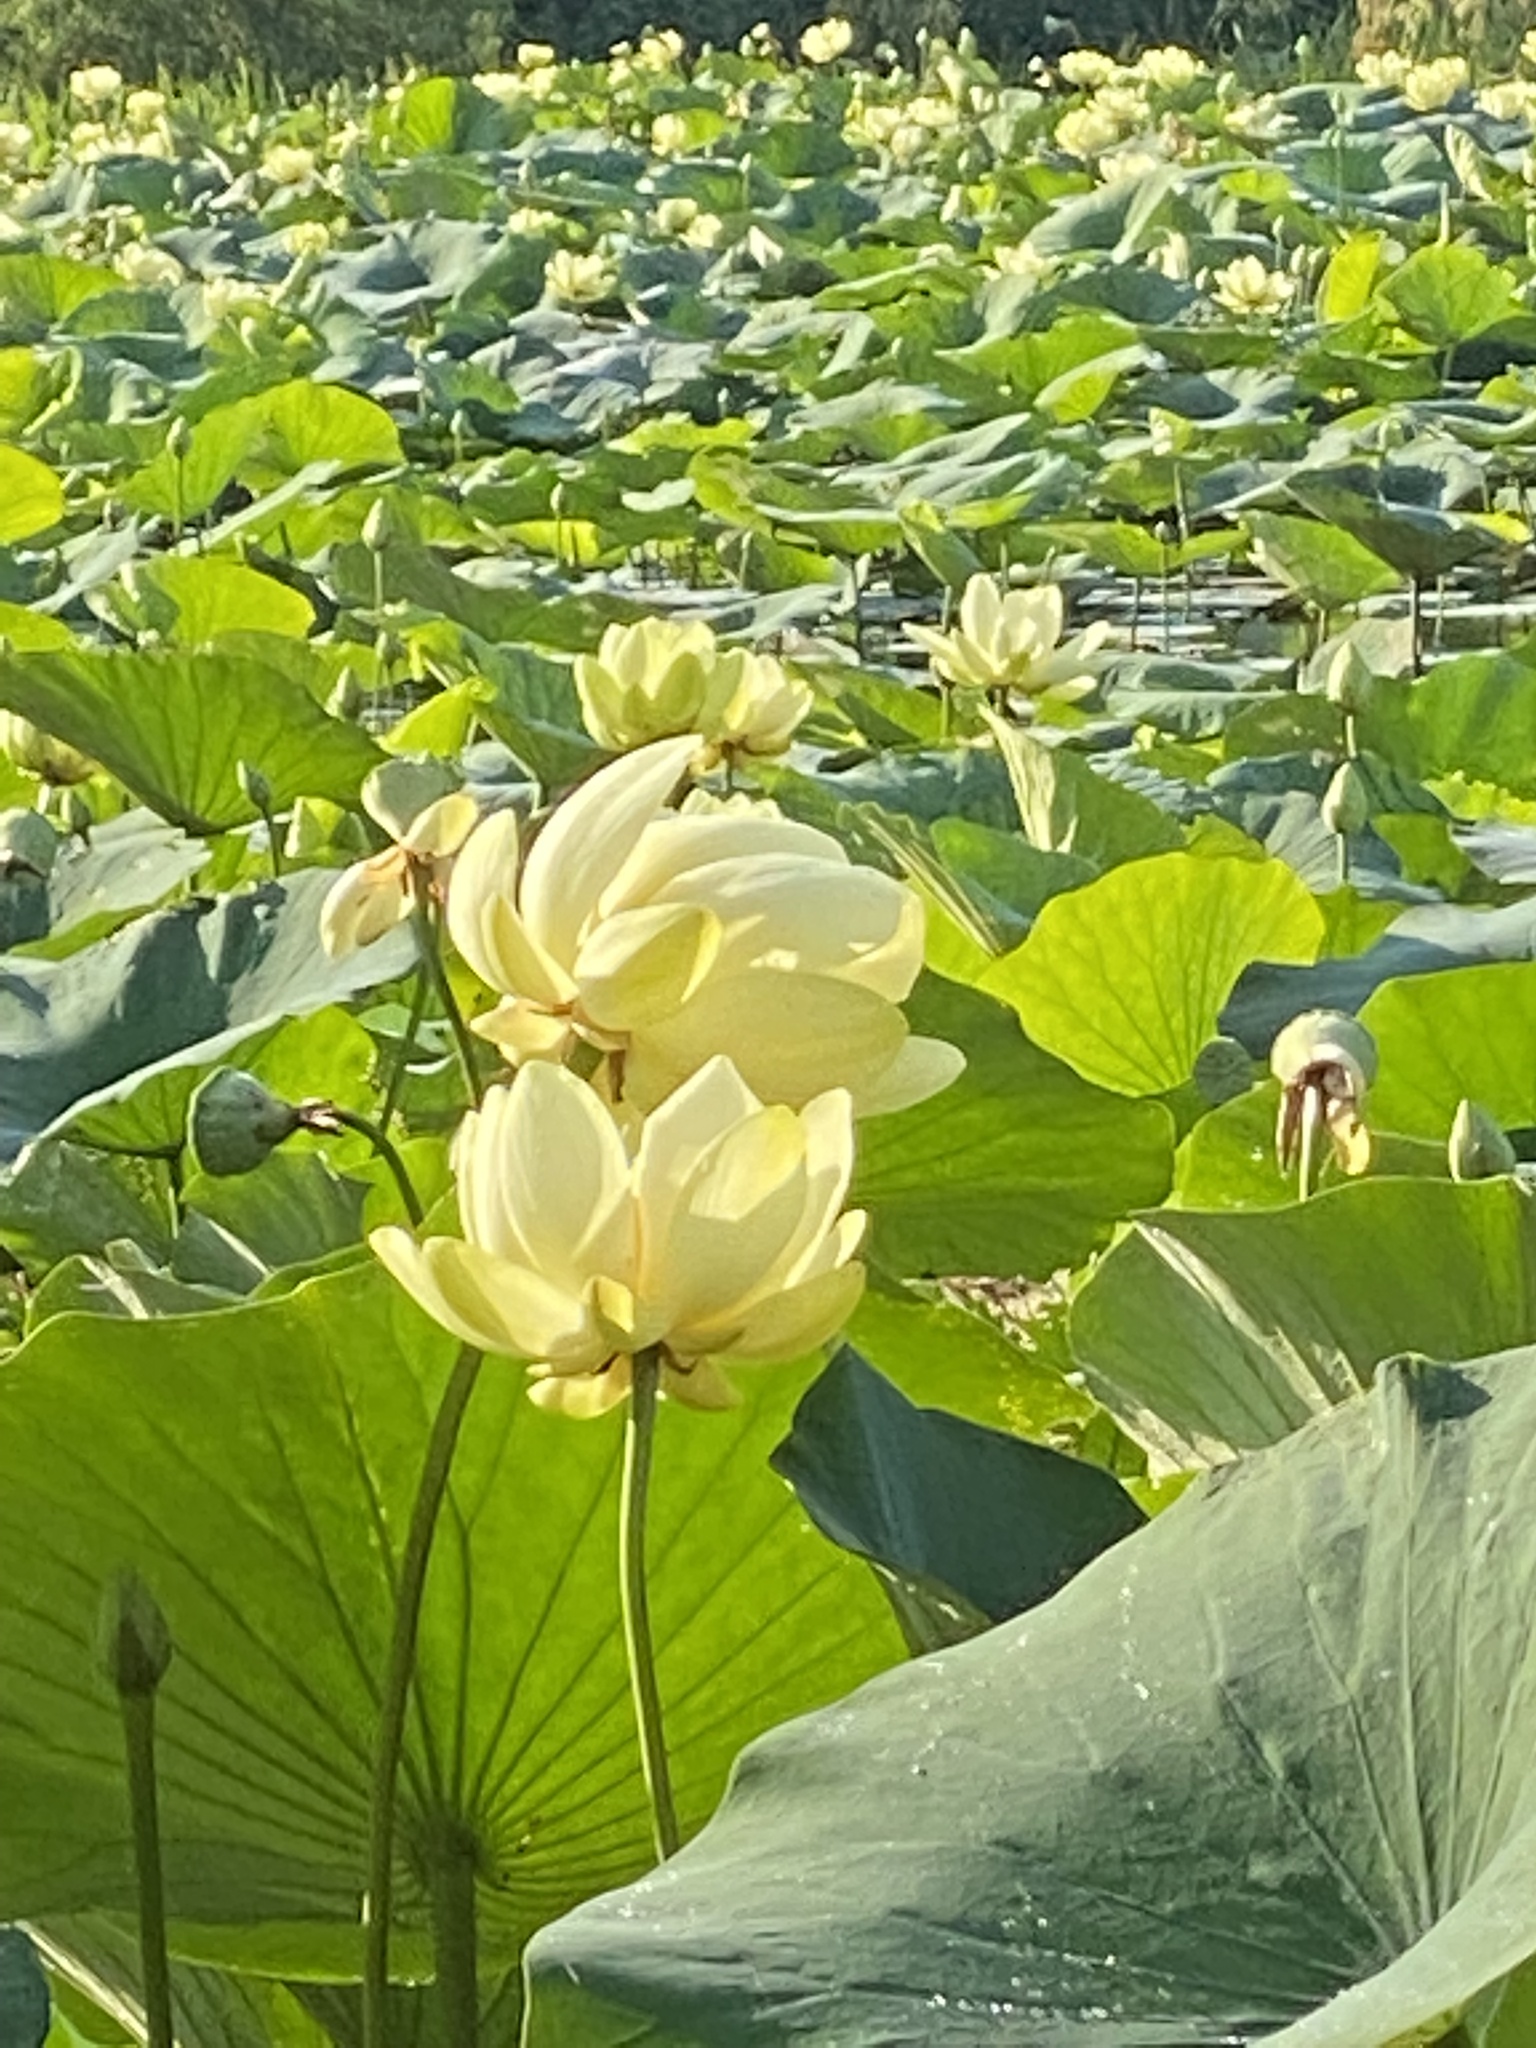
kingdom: Plantae
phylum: Tracheophyta
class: Magnoliopsida
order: Proteales
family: Nelumbonaceae
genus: Nelumbo
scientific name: Nelumbo lutea
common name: American lotus
